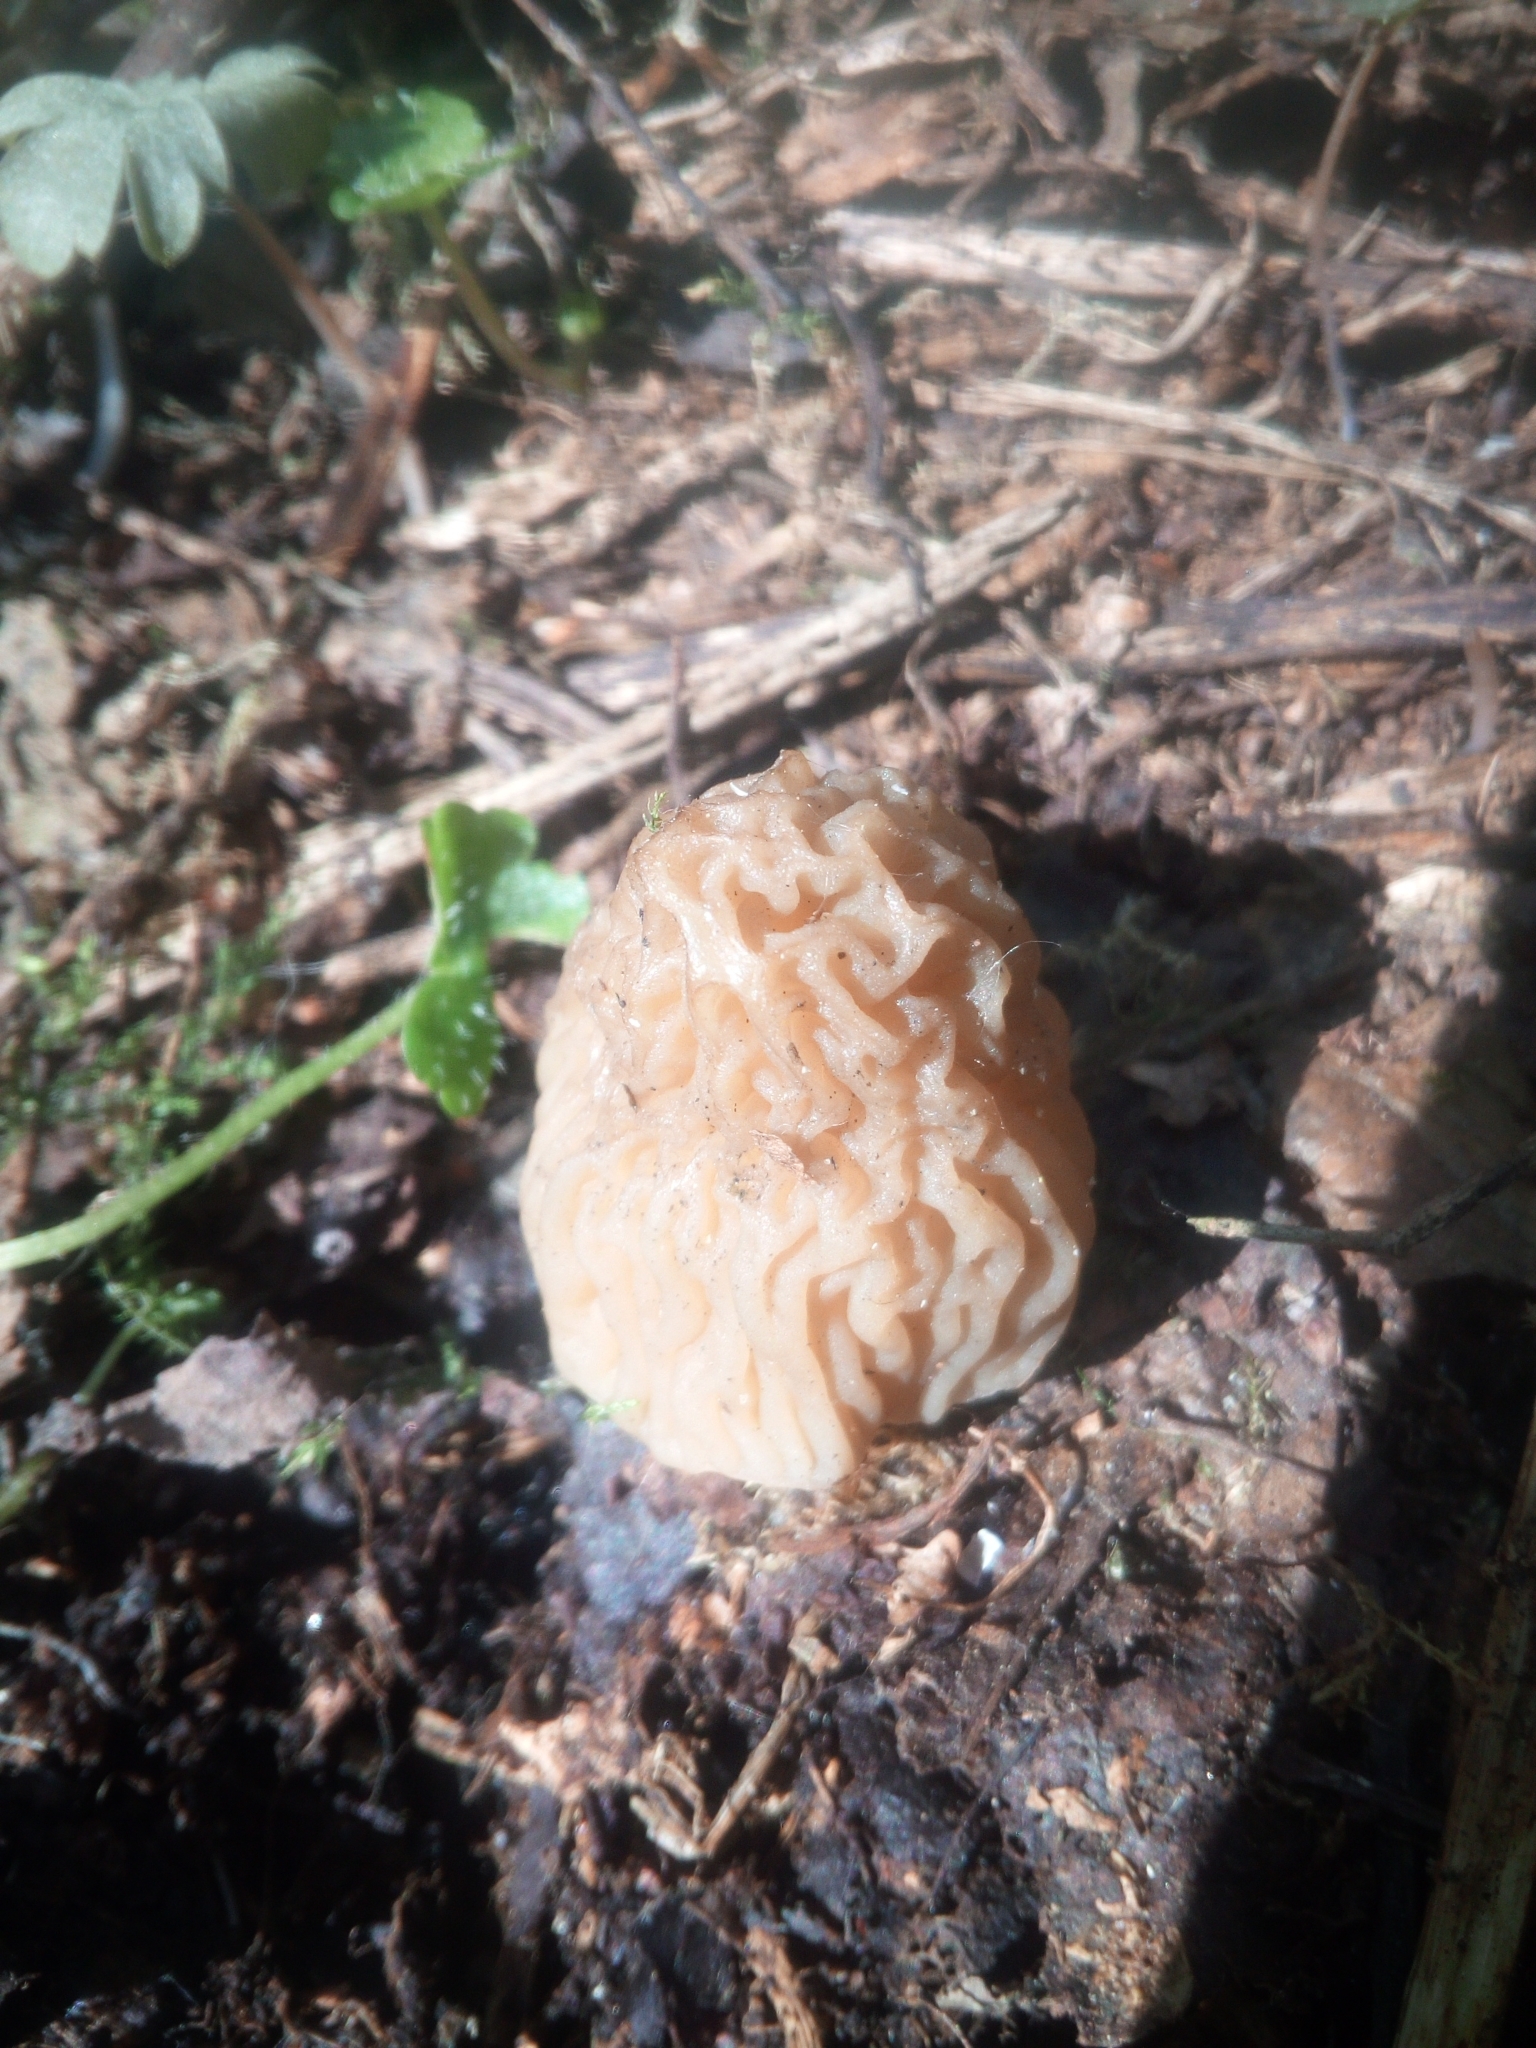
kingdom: Fungi
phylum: Ascomycota
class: Pezizomycetes
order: Pezizales
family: Morchellaceae
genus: Verpa
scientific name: Verpa bohemica
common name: Wrinkled thimble morel
